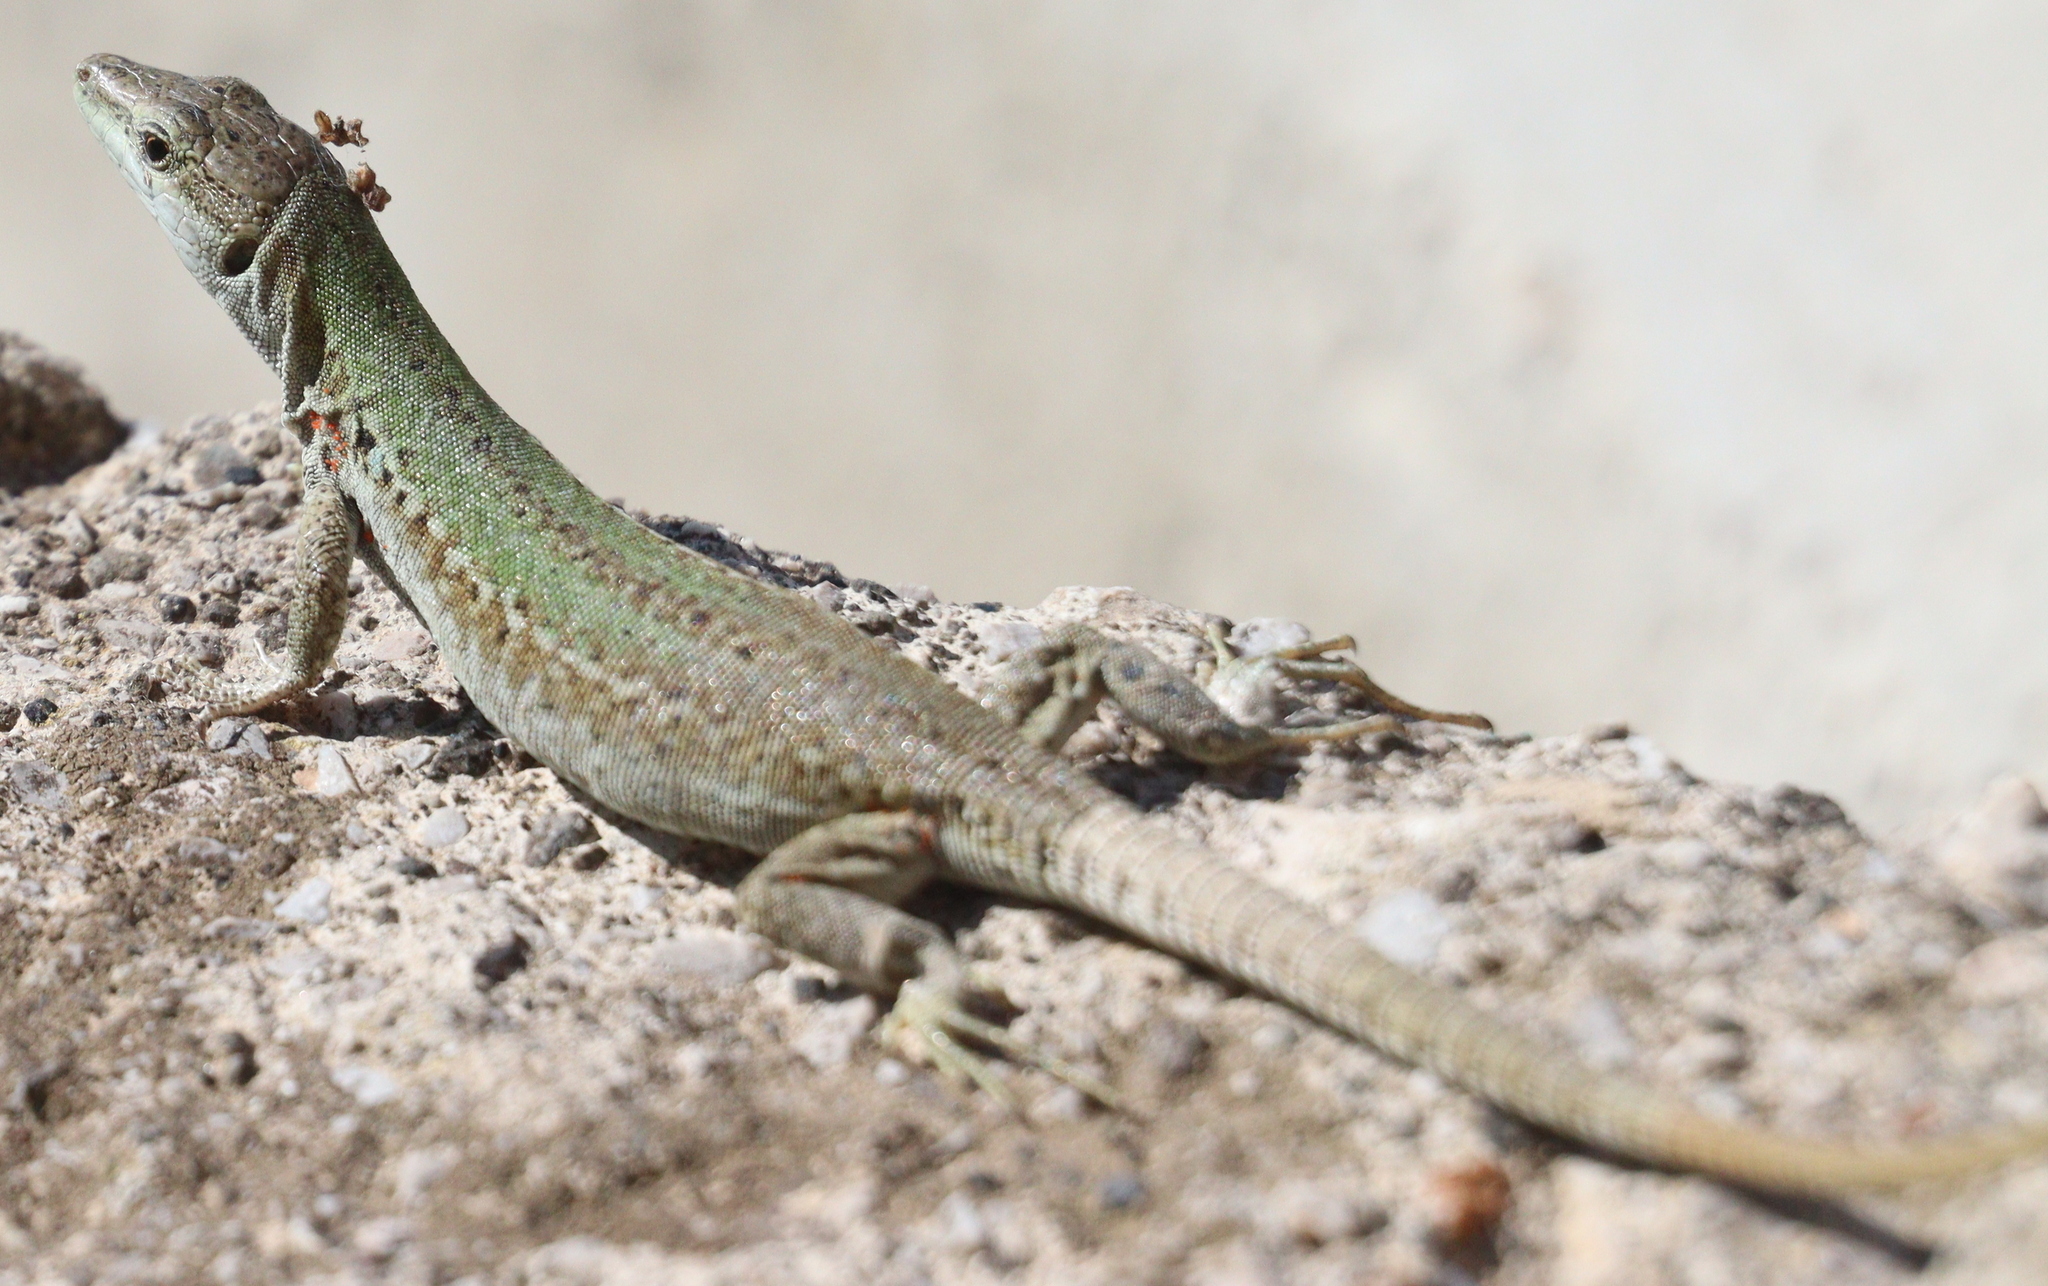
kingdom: Animalia
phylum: Chordata
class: Squamata
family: Lacertidae
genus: Podarcis
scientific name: Podarcis siculus
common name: Italian wall lizard
